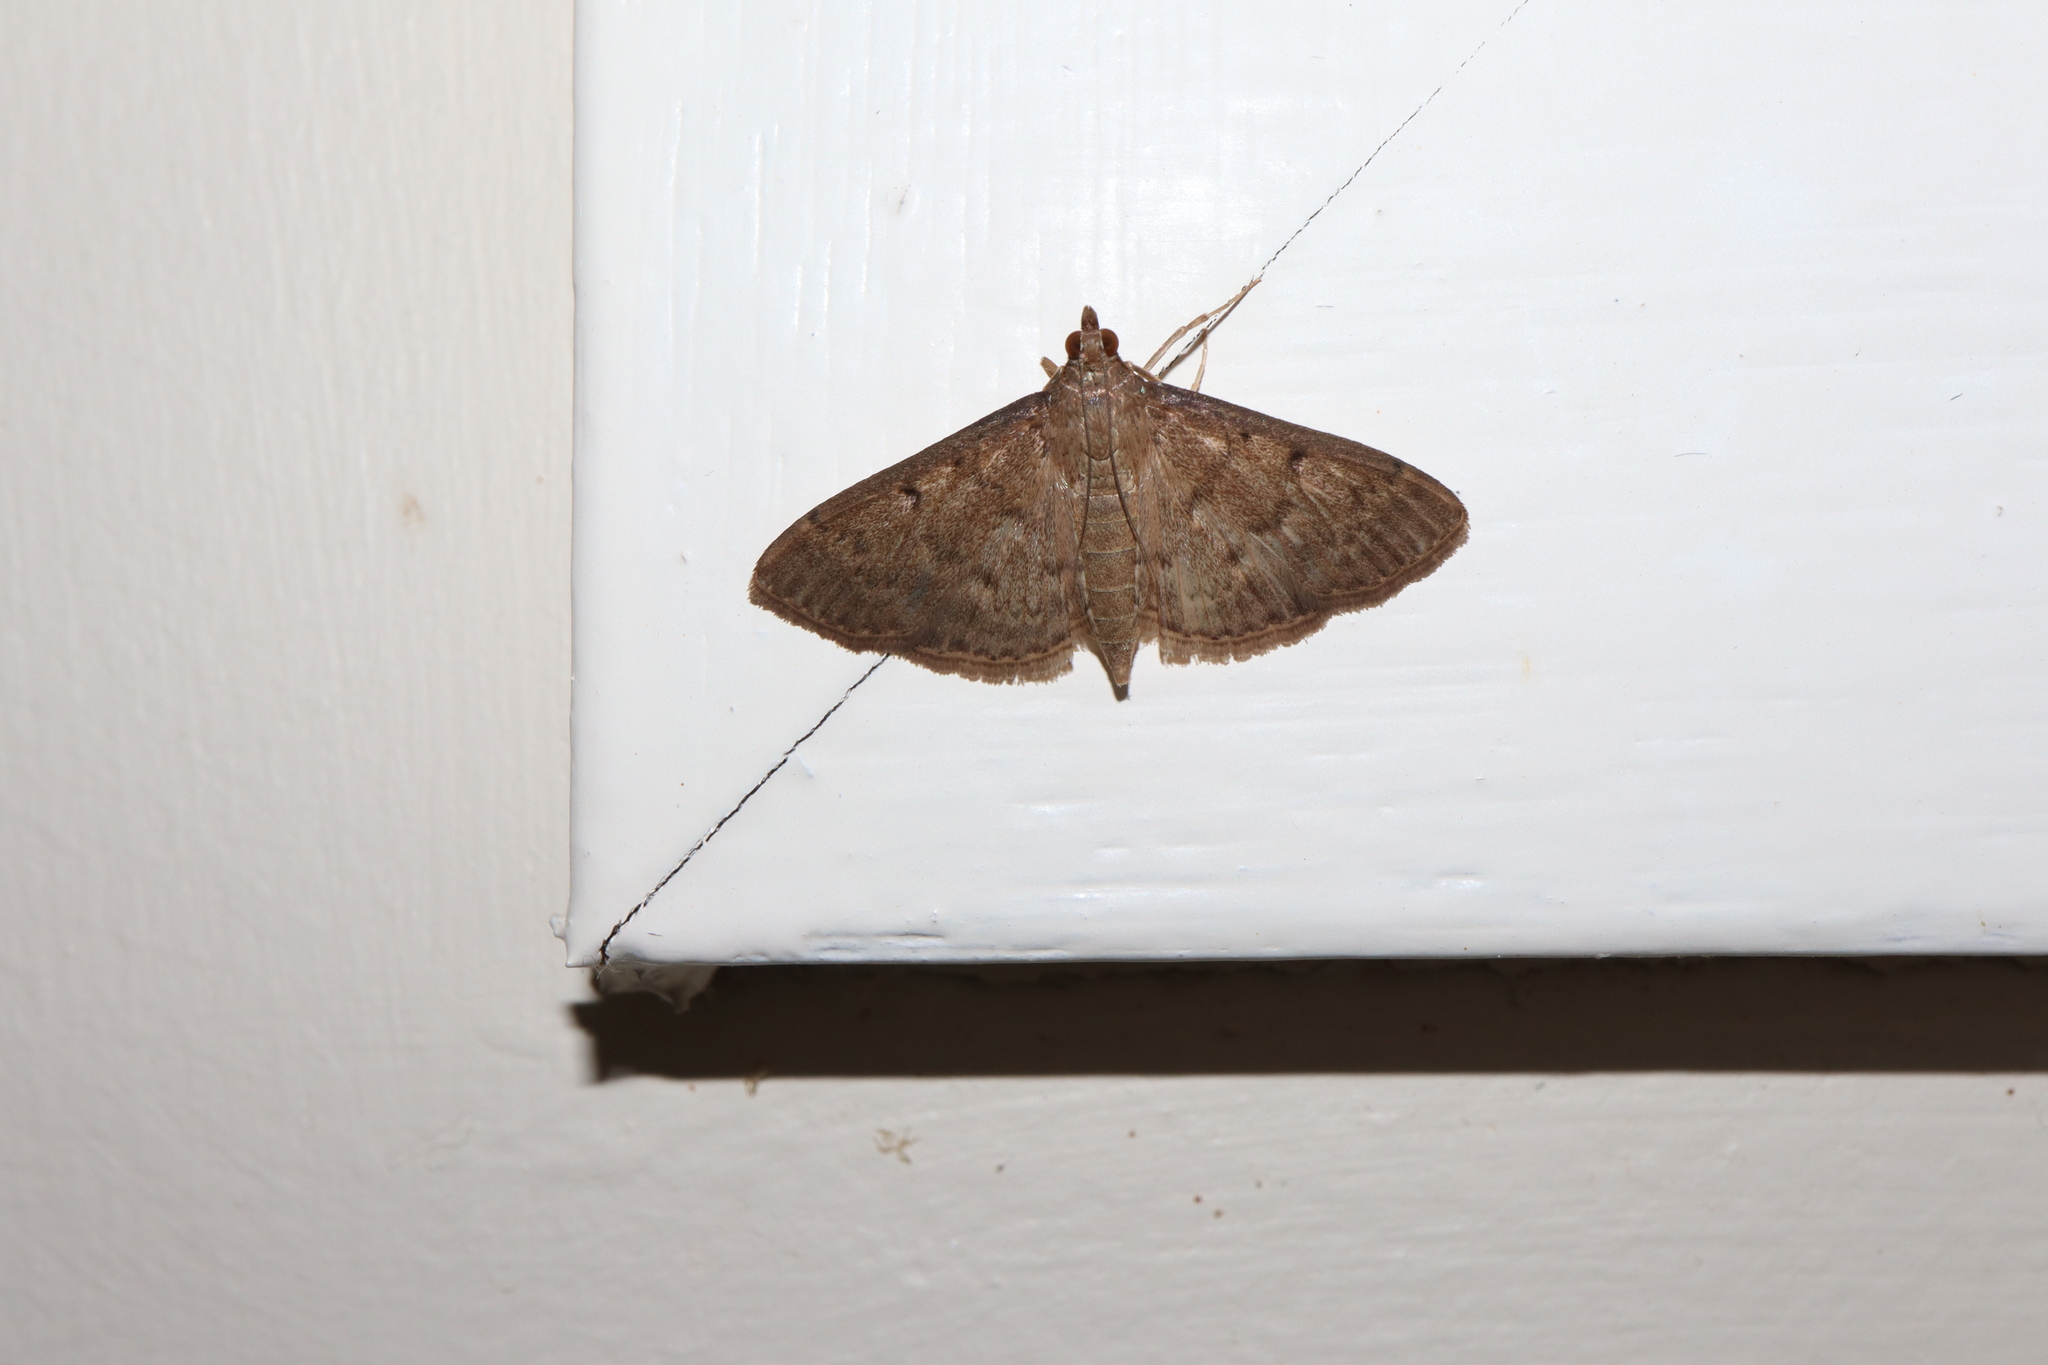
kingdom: Animalia
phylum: Arthropoda
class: Insecta
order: Lepidoptera
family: Crambidae
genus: Herpetogramma
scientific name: Herpetogramma licarsisalis
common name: Grass webworm
